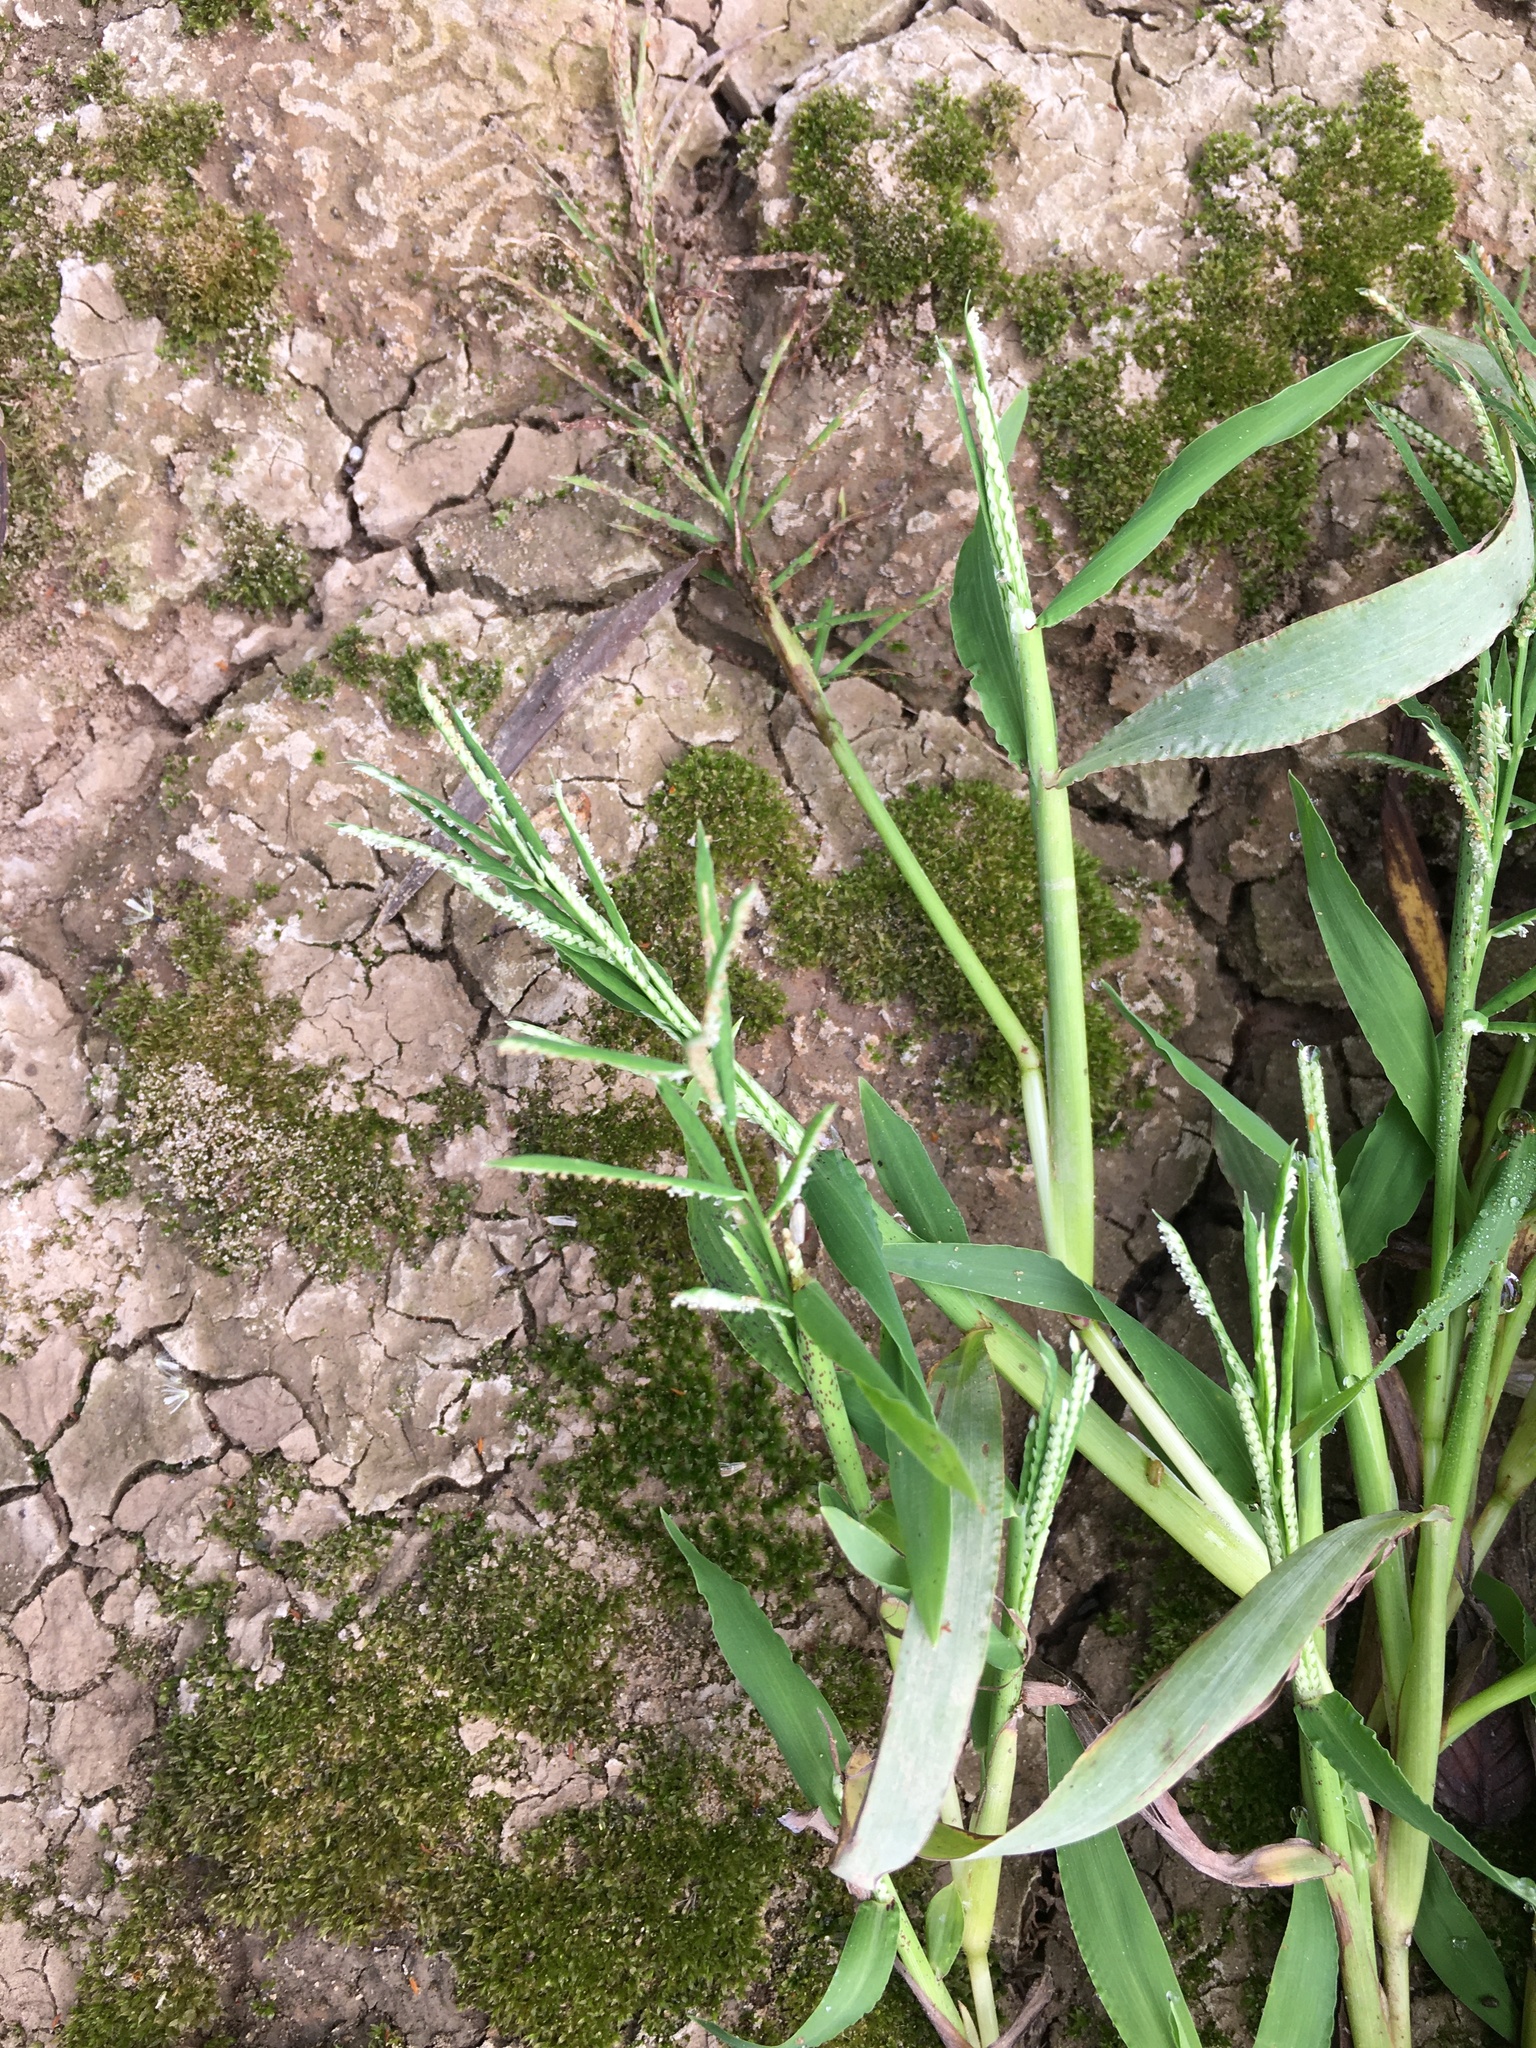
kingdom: Plantae
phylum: Tracheophyta
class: Liliopsida
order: Poales
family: Poaceae
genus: Paspalum
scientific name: Paspalum repens
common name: Water paspalum
